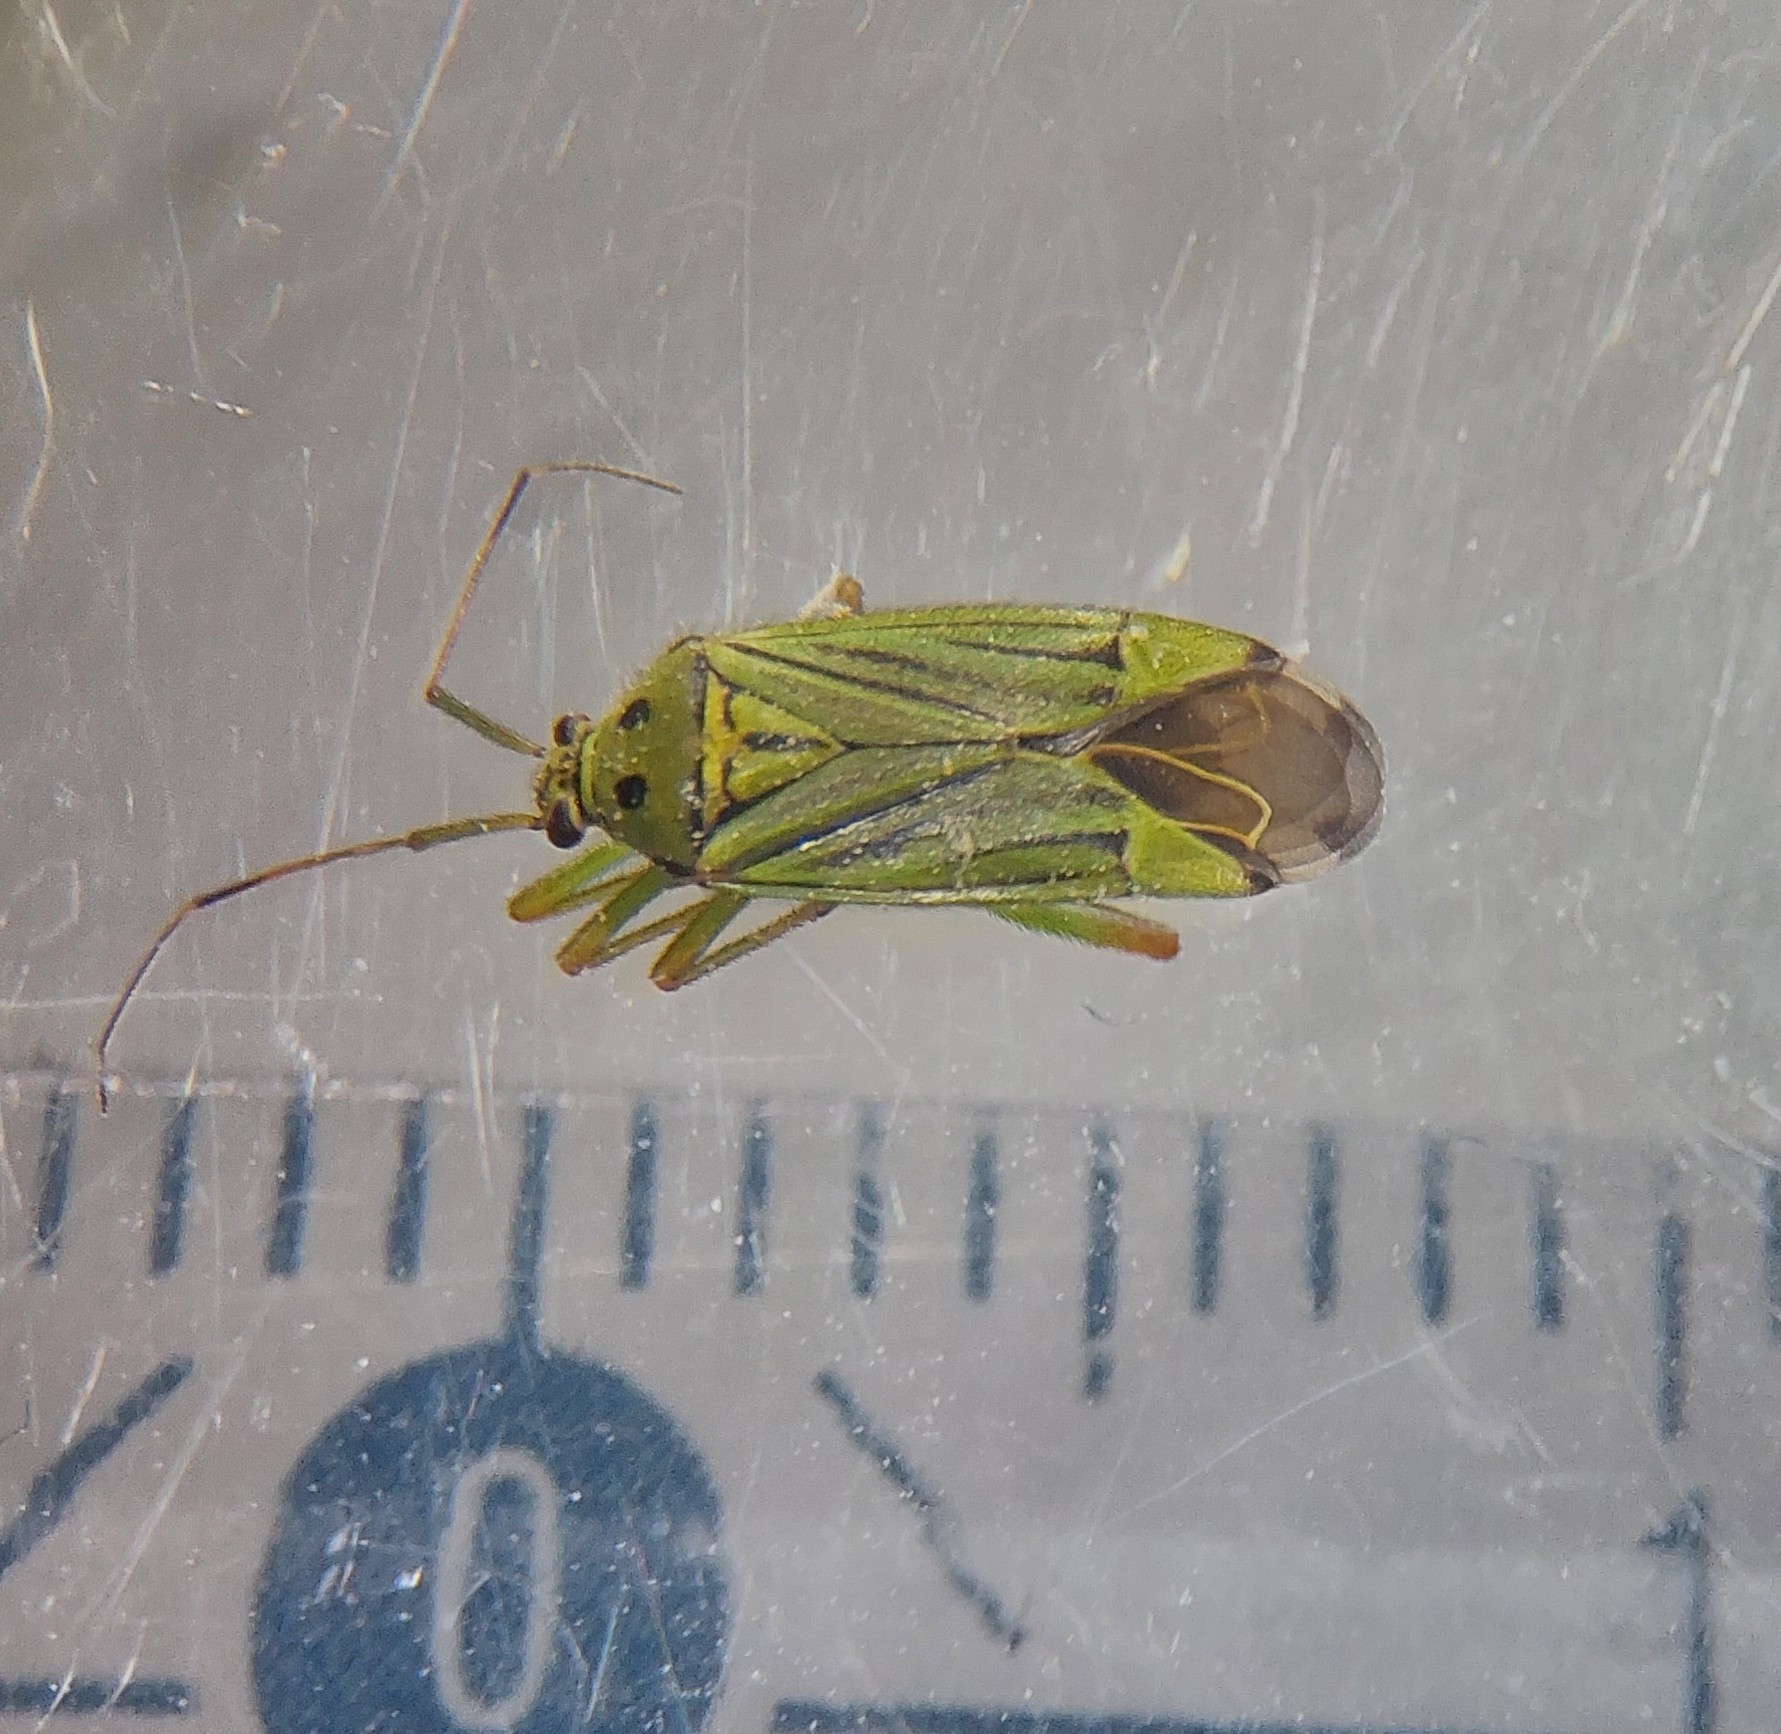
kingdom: Animalia
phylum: Arthropoda
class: Insecta
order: Hemiptera
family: Miridae
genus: Mermitelocerus
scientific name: Mermitelocerus schmidtii
